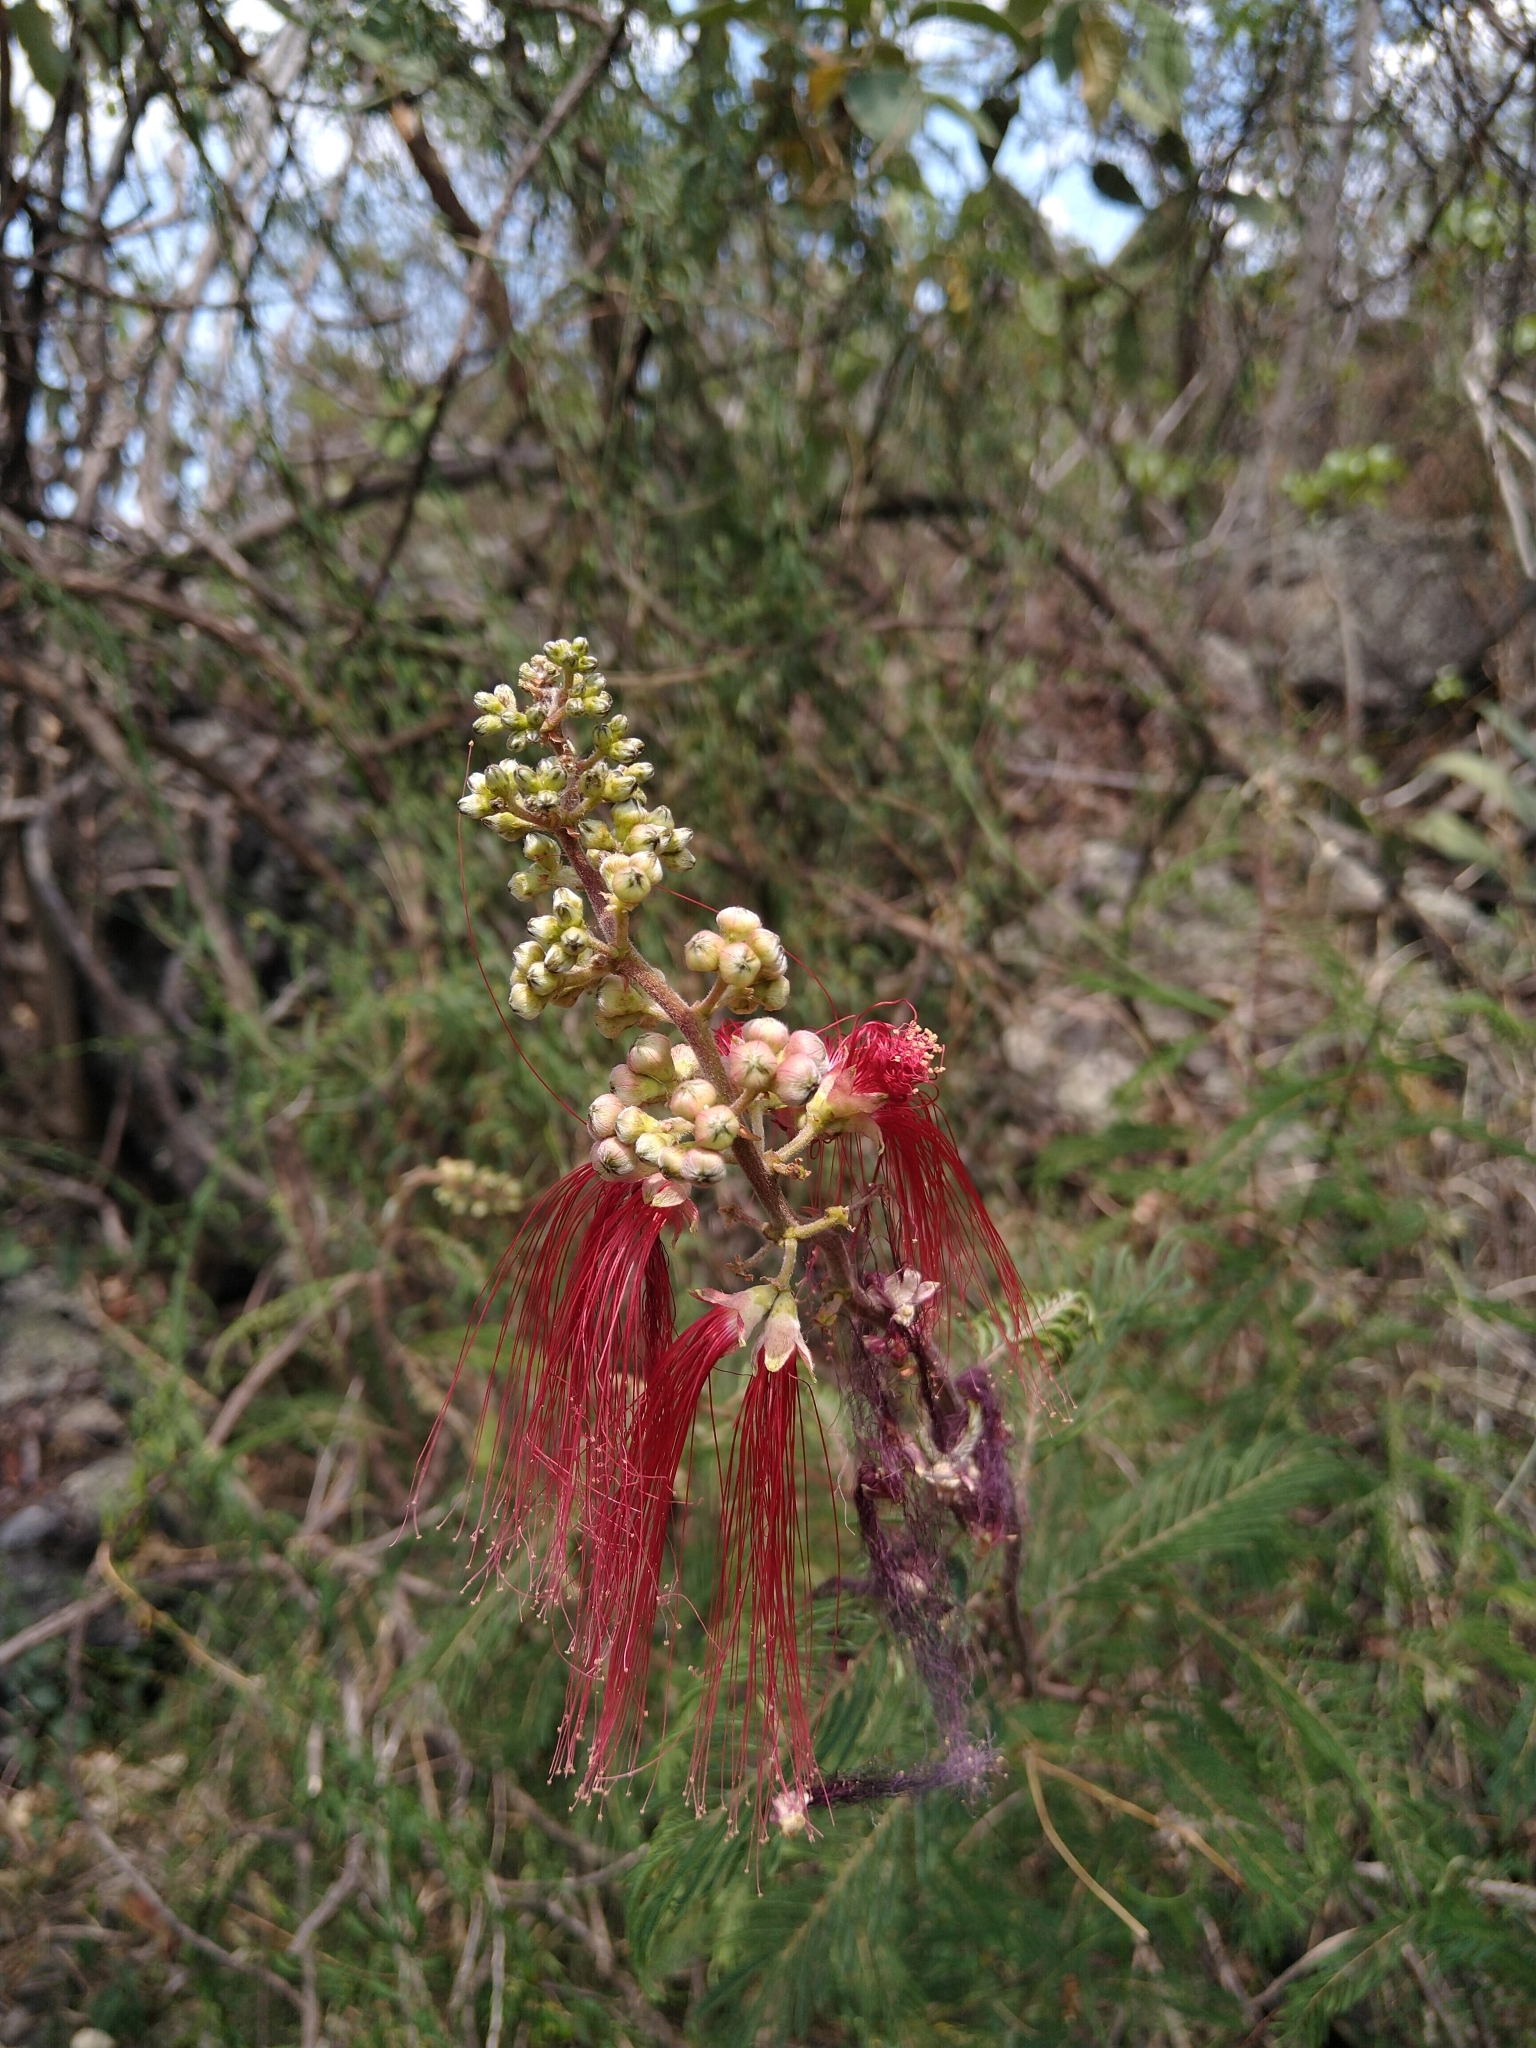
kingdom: Plantae
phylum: Tracheophyta
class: Magnoliopsida
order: Fabales
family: Fabaceae
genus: Calliandra
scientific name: Calliandra houstoniana
